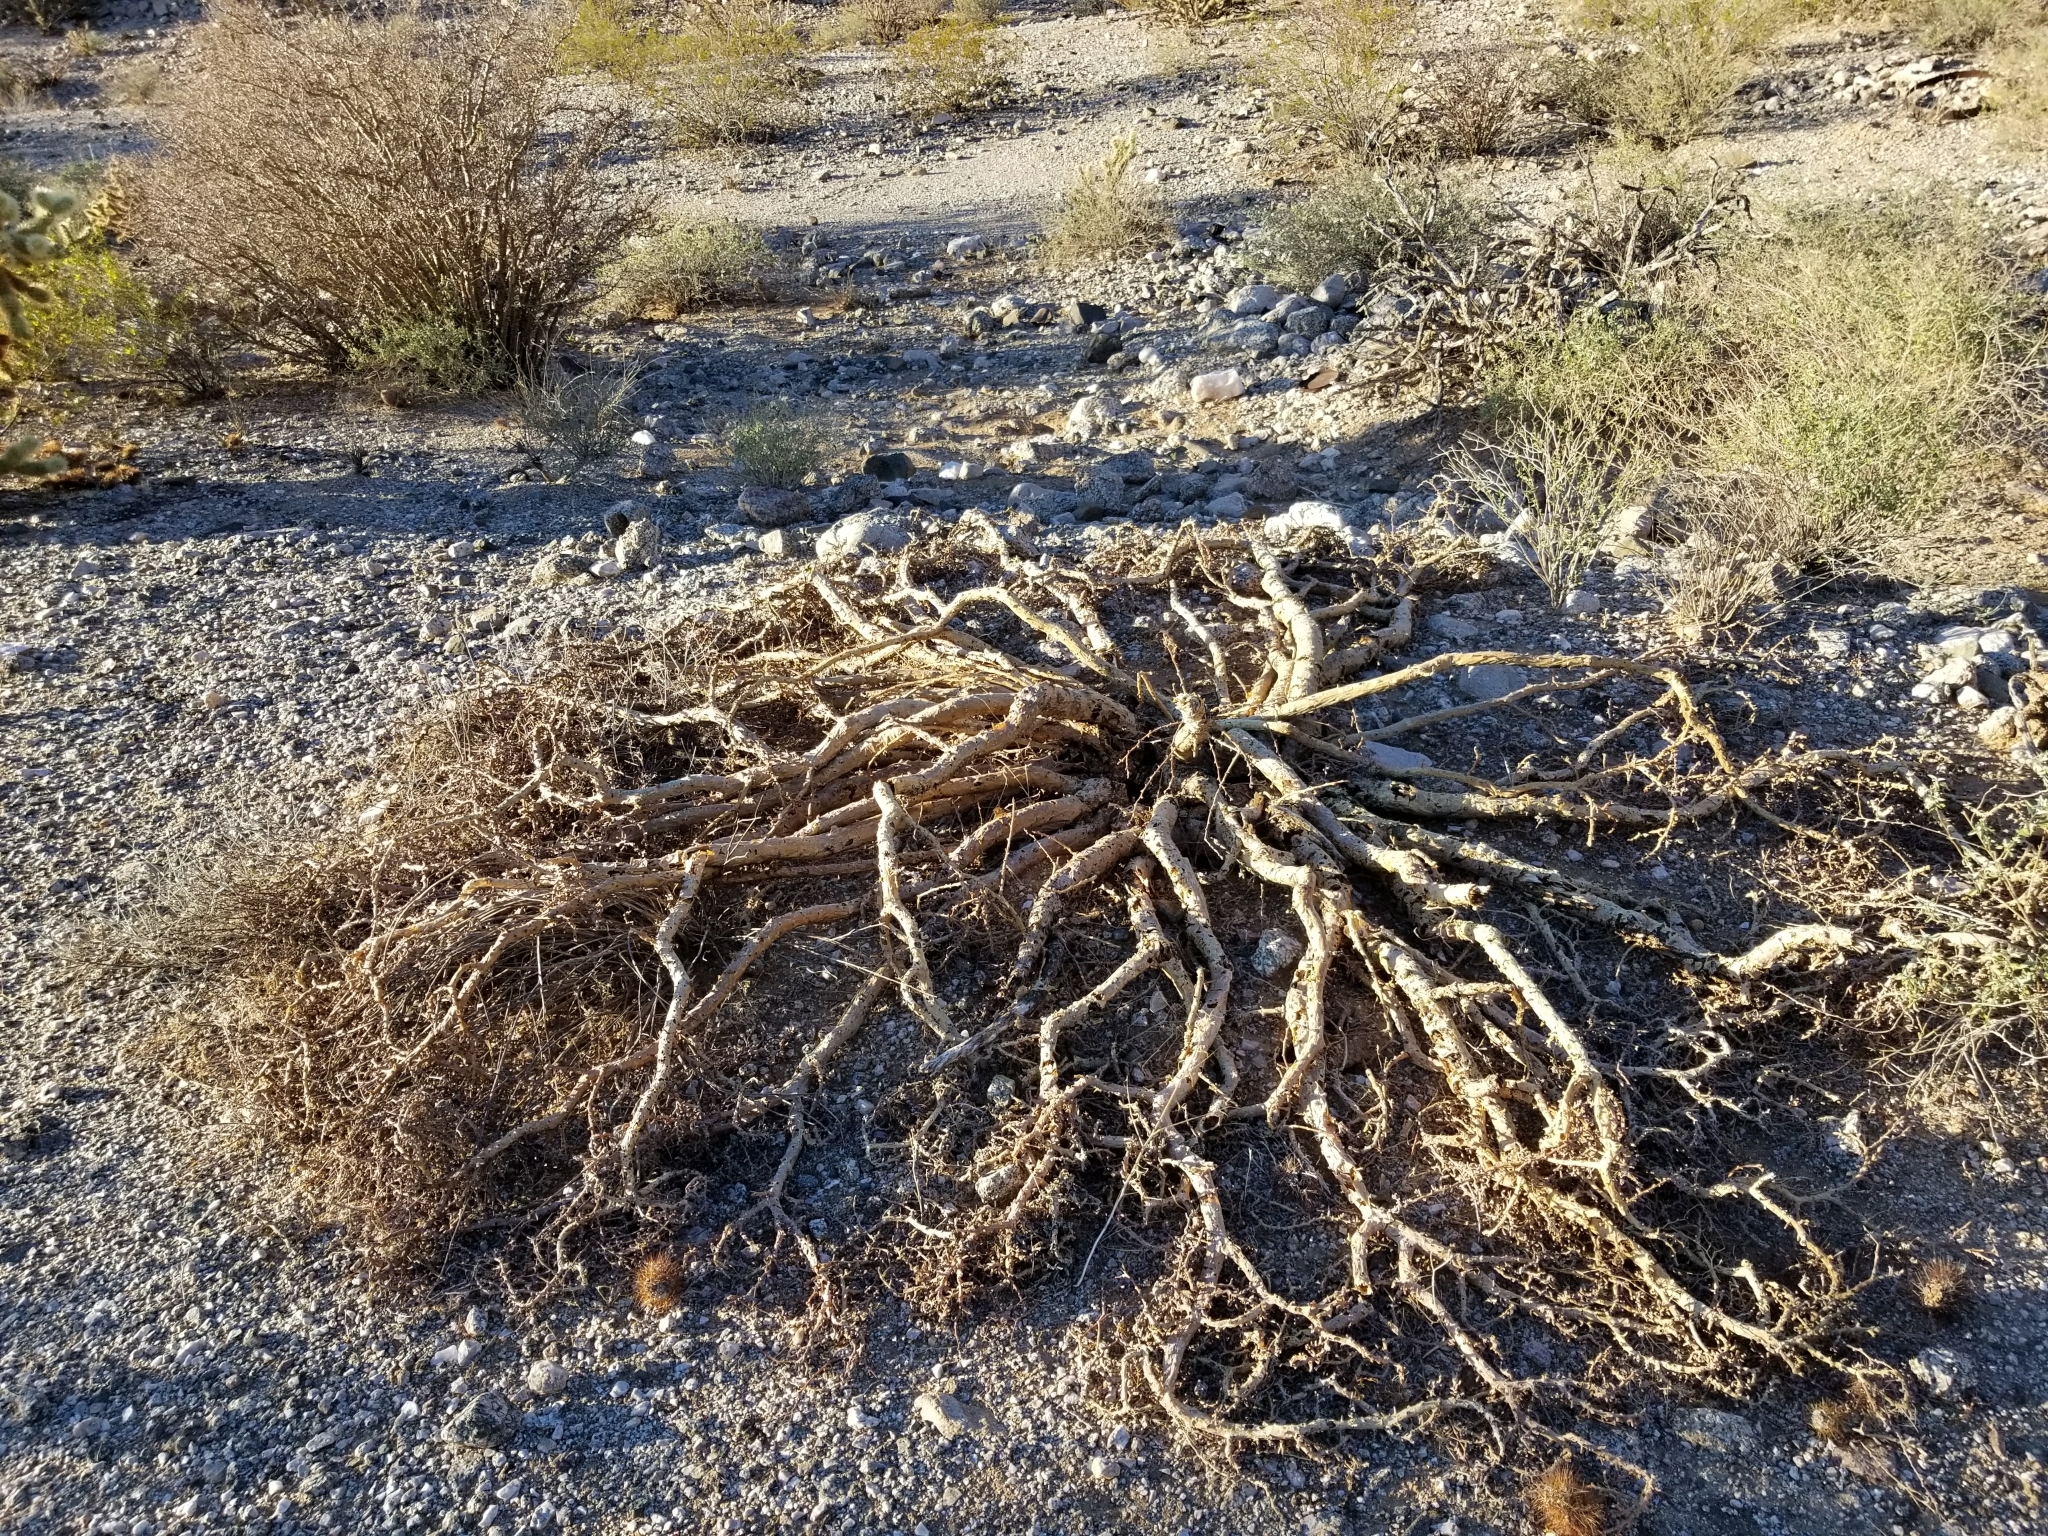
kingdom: Plantae
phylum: Tracheophyta
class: Magnoliopsida
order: Malpighiales
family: Euphorbiaceae
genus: Jatropha
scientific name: Jatropha cuneata
